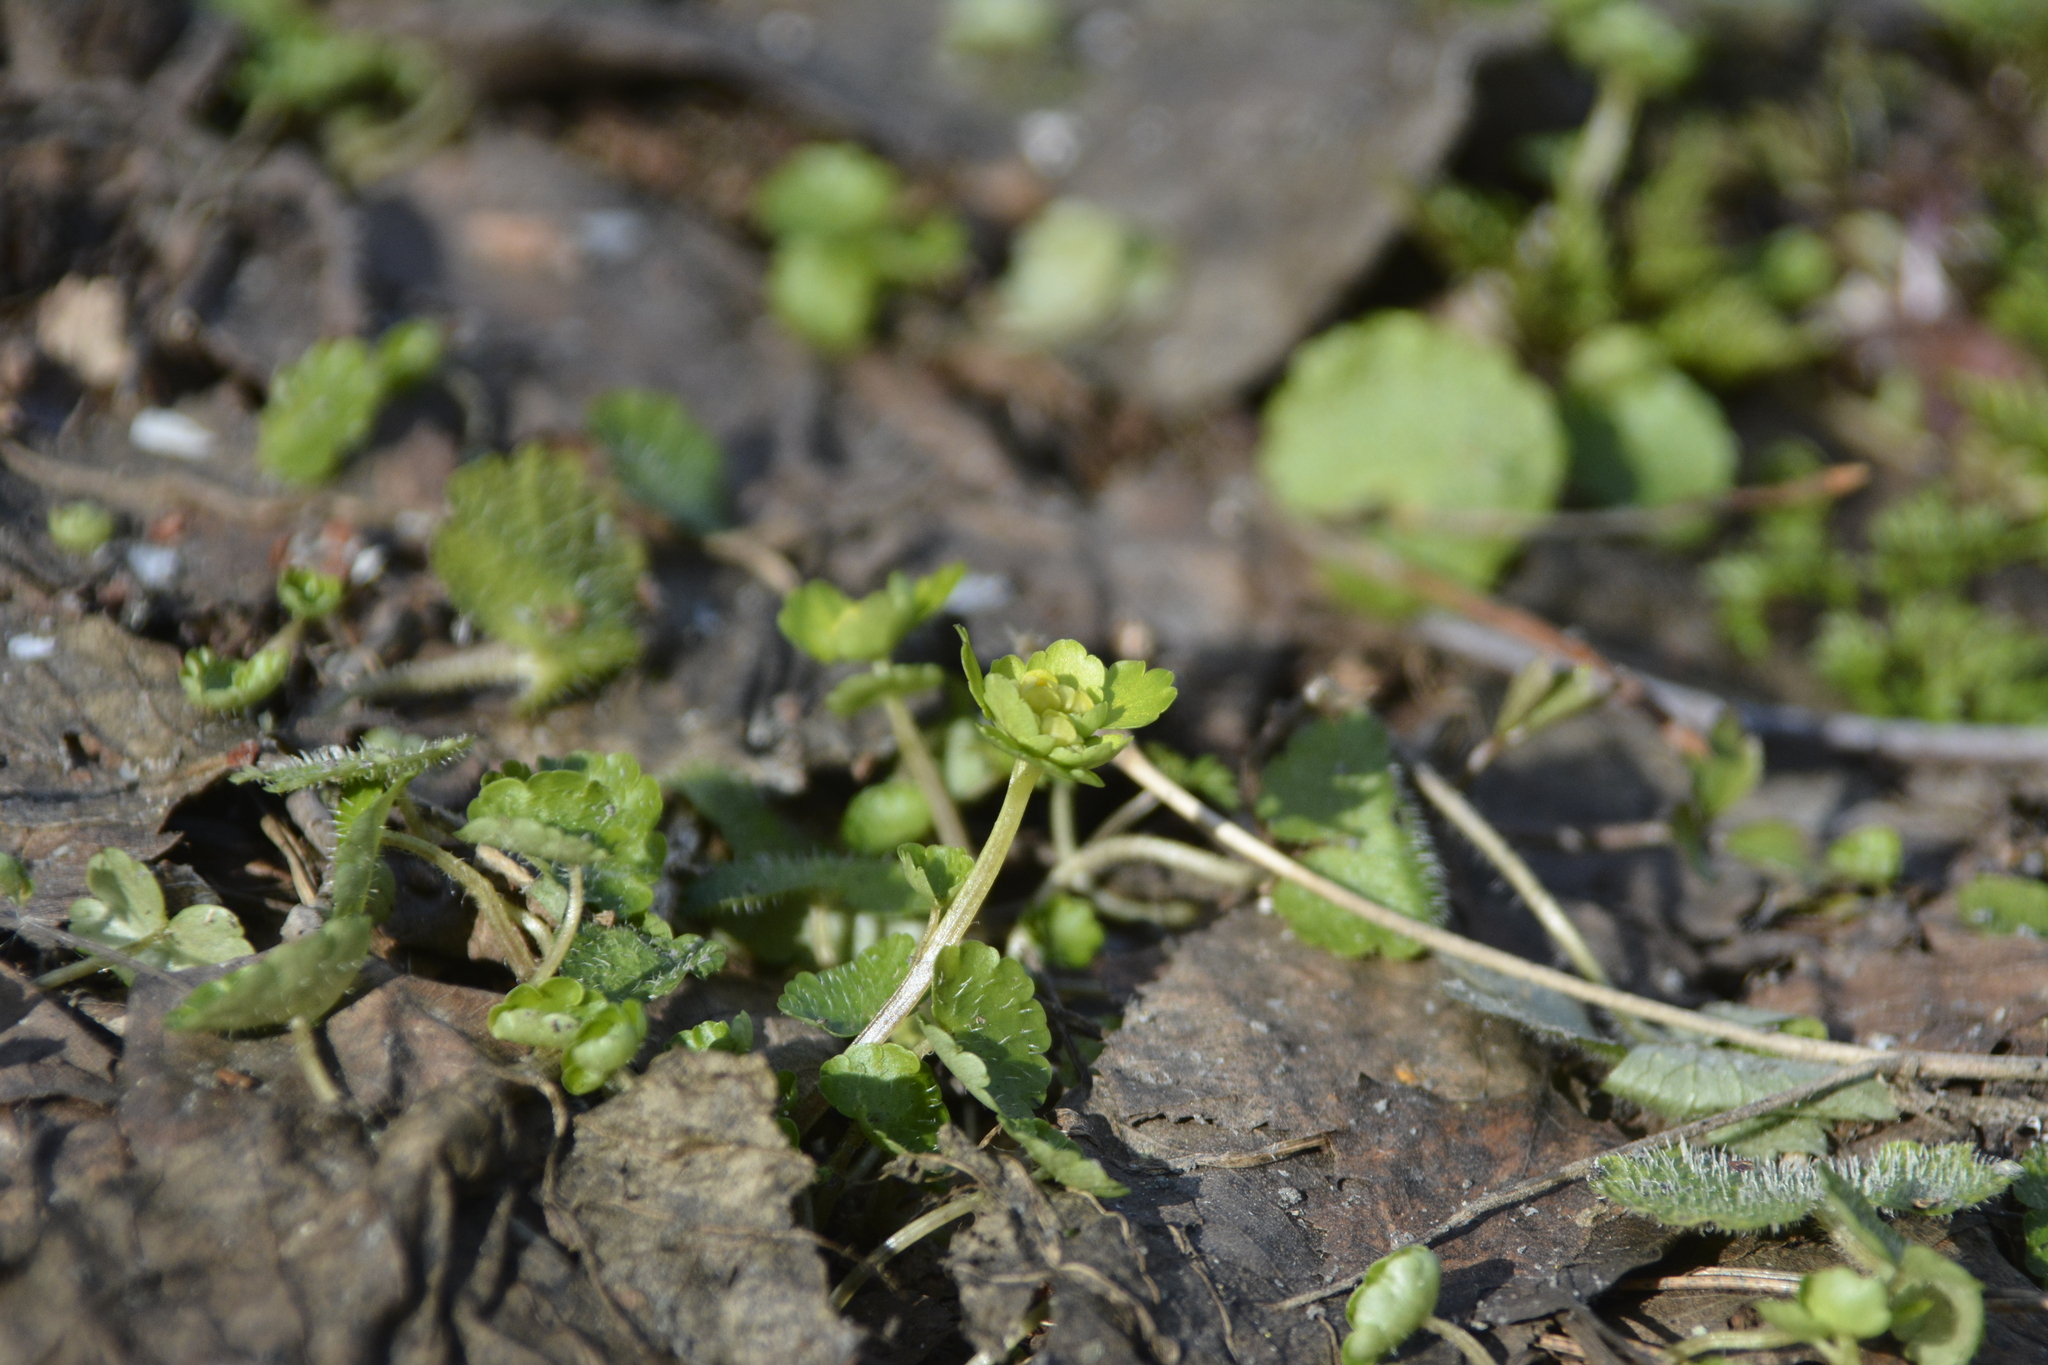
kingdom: Plantae
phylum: Tracheophyta
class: Magnoliopsida
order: Saxifragales
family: Saxifragaceae
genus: Chrysosplenium
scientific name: Chrysosplenium alternifolium
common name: Alternate-leaved golden-saxifrage
